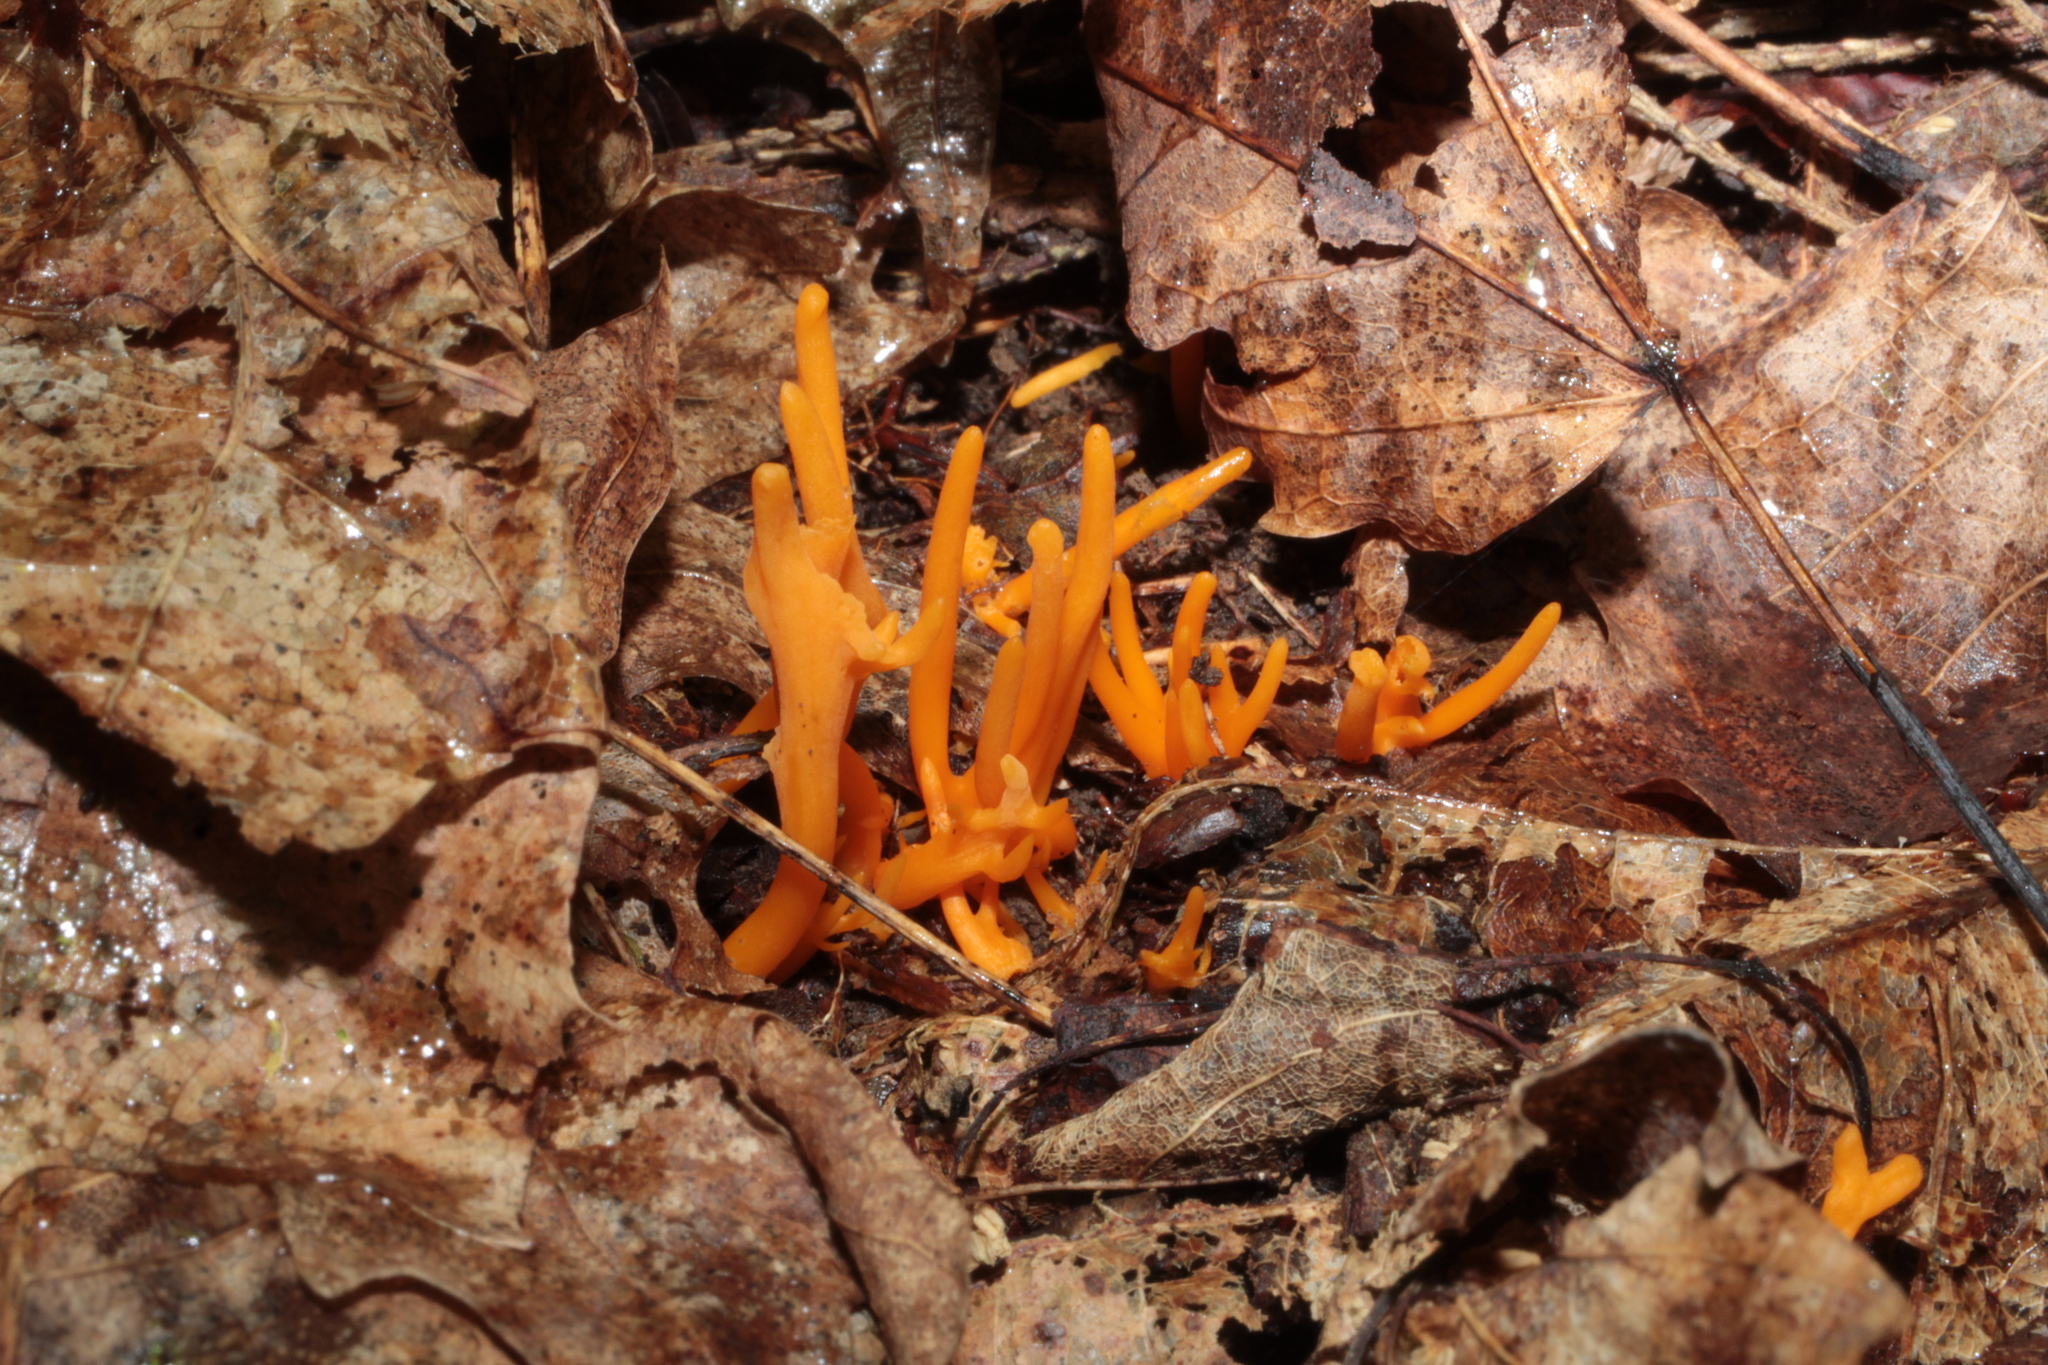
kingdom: Fungi
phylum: Basidiomycota
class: Agaricomycetes
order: Agaricales
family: Clavariaceae
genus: Clavulinopsis
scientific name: Clavulinopsis aurantiocinnabarina
